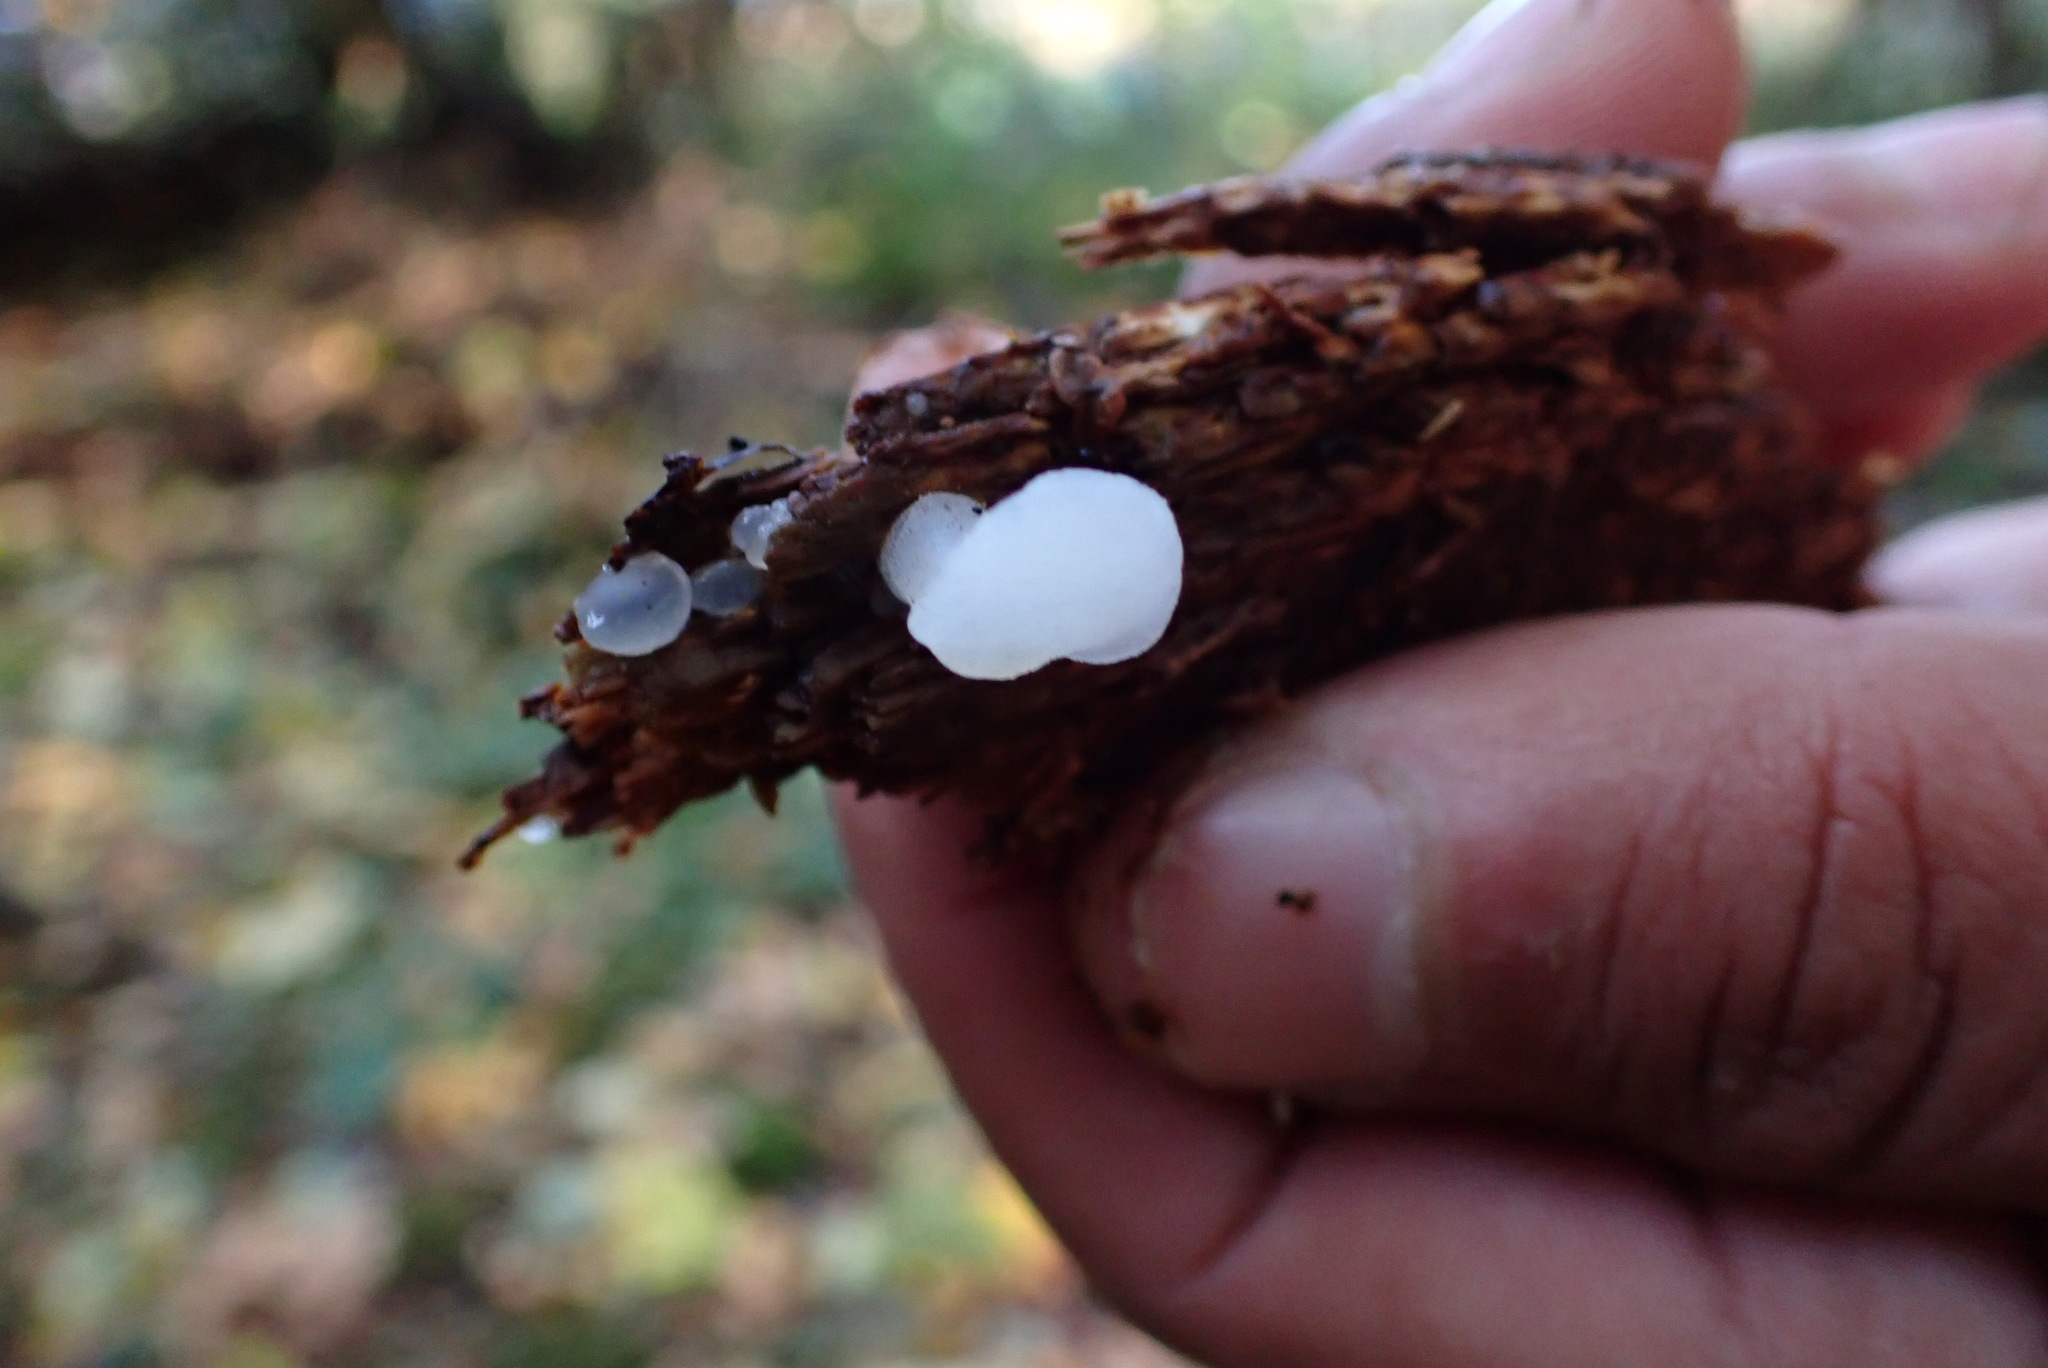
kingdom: Fungi
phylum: Basidiomycota
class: Agaricomycetes
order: Auriculariales
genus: Pseudohydnum
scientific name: Pseudohydnum gelatinosum
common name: Jelly tongue
